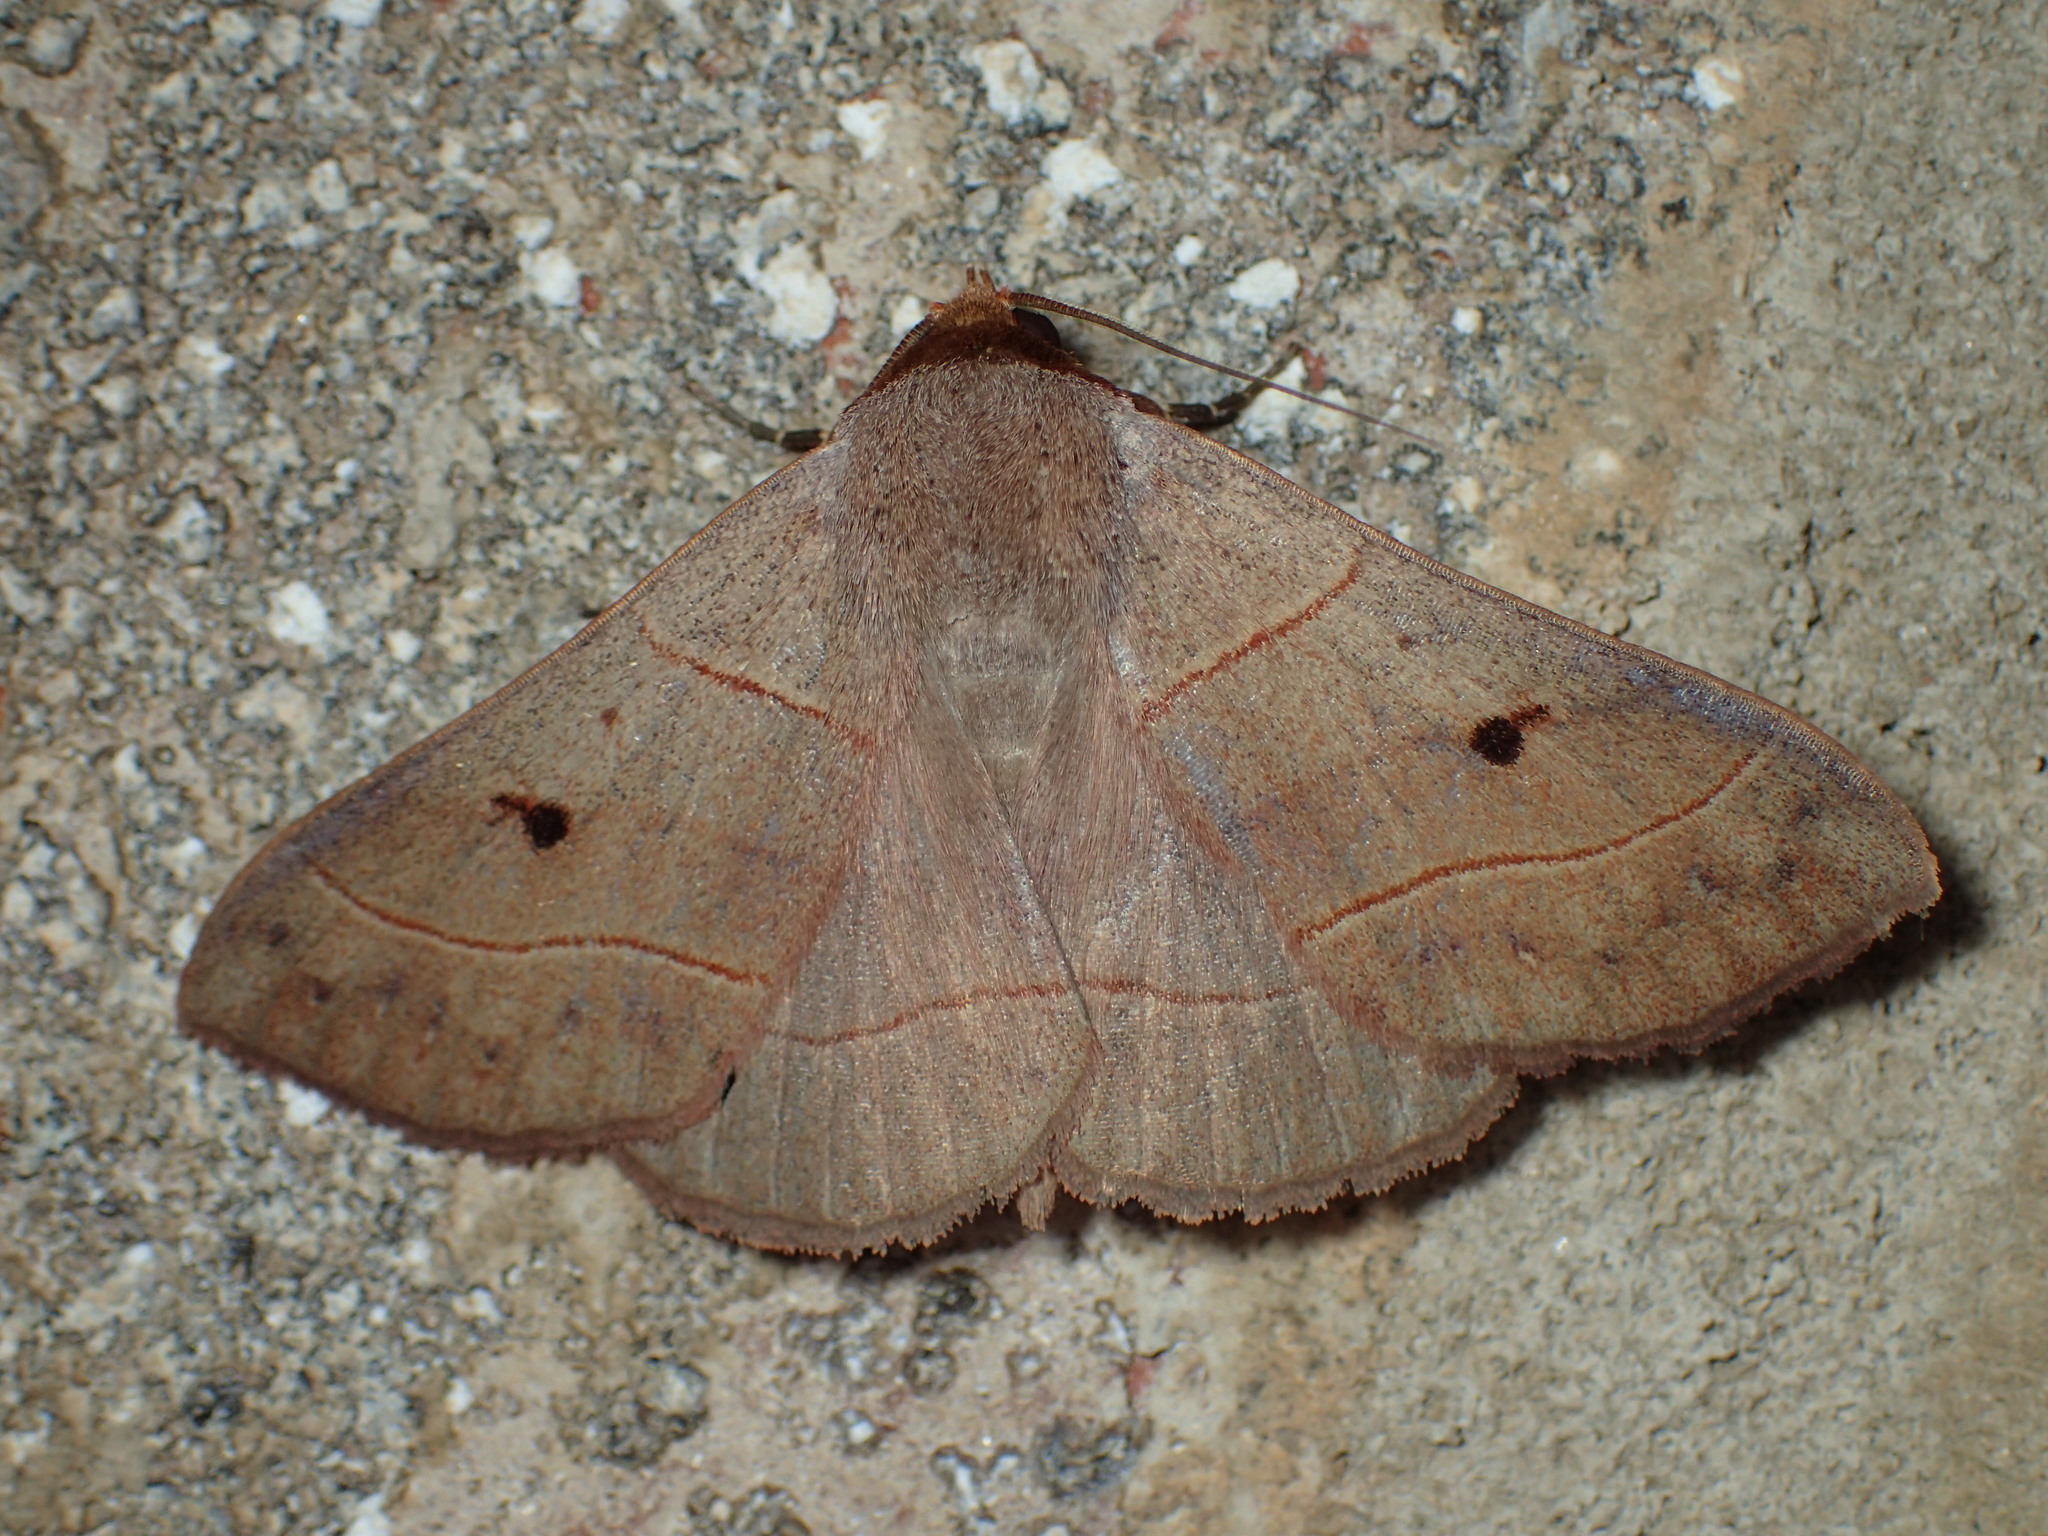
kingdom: Animalia
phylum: Arthropoda
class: Insecta
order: Lepidoptera
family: Erebidae
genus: Panopoda
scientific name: Panopoda rufimargo
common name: Red-lined panopoda moth
